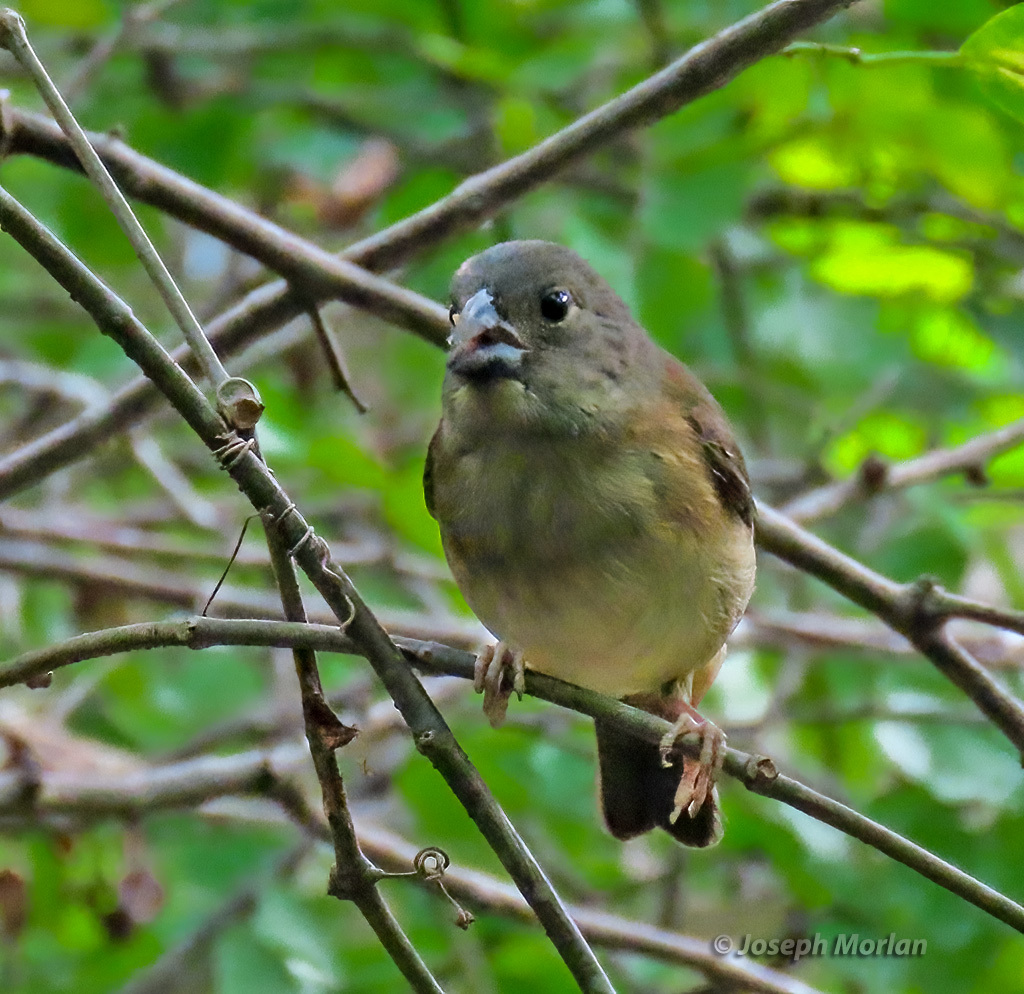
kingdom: Animalia
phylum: Chordata
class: Aves
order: Passeriformes
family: Thraupidae
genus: Melanospiza
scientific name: Melanospiza richardsoni
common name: St. lucia black finch
